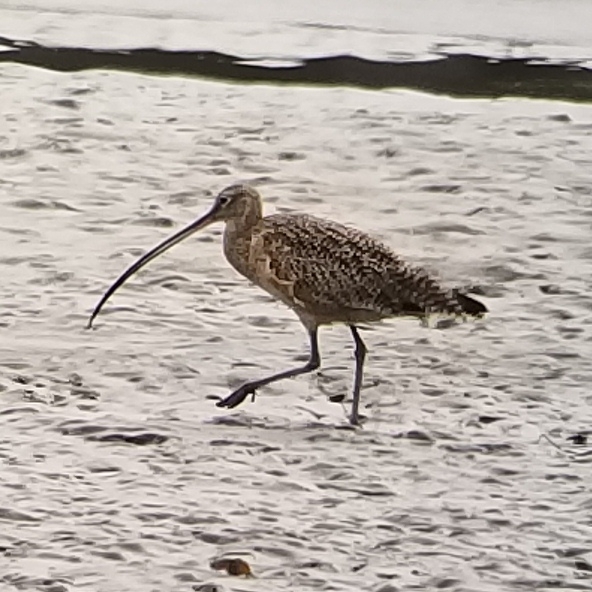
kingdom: Animalia
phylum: Chordata
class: Aves
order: Charadriiformes
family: Scolopacidae
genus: Numenius
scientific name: Numenius americanus
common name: Long-billed curlew
